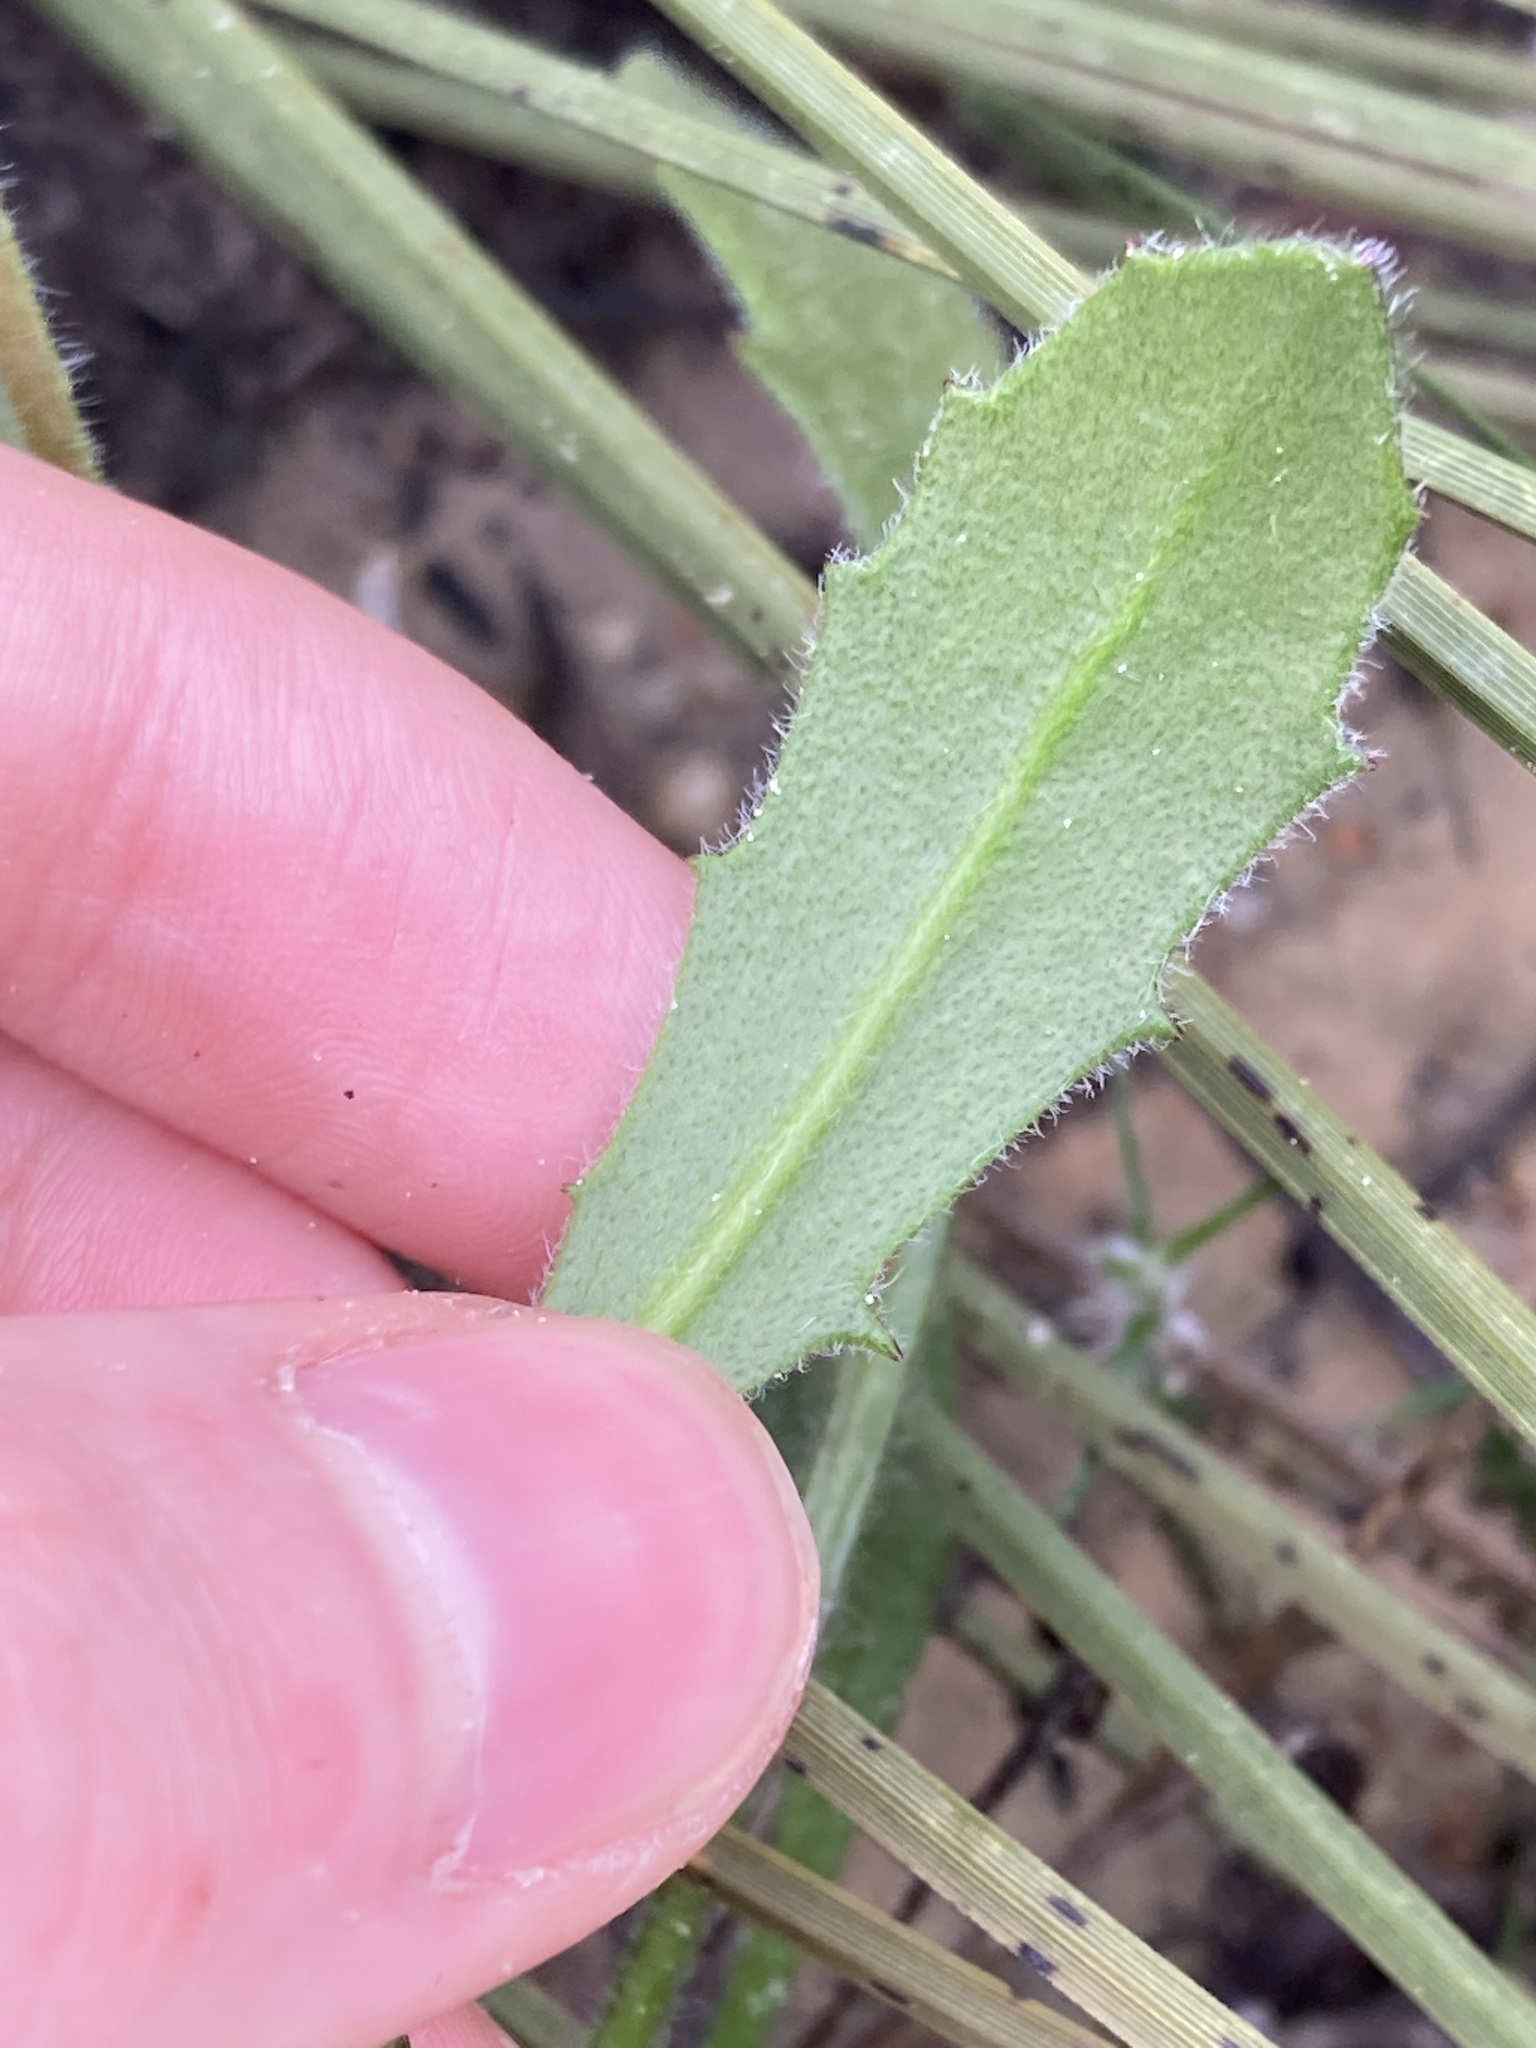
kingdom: Plantae
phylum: Tracheophyta
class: Magnoliopsida
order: Asterales
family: Goodeniaceae
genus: Goodenia
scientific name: Goodenia trinervis
